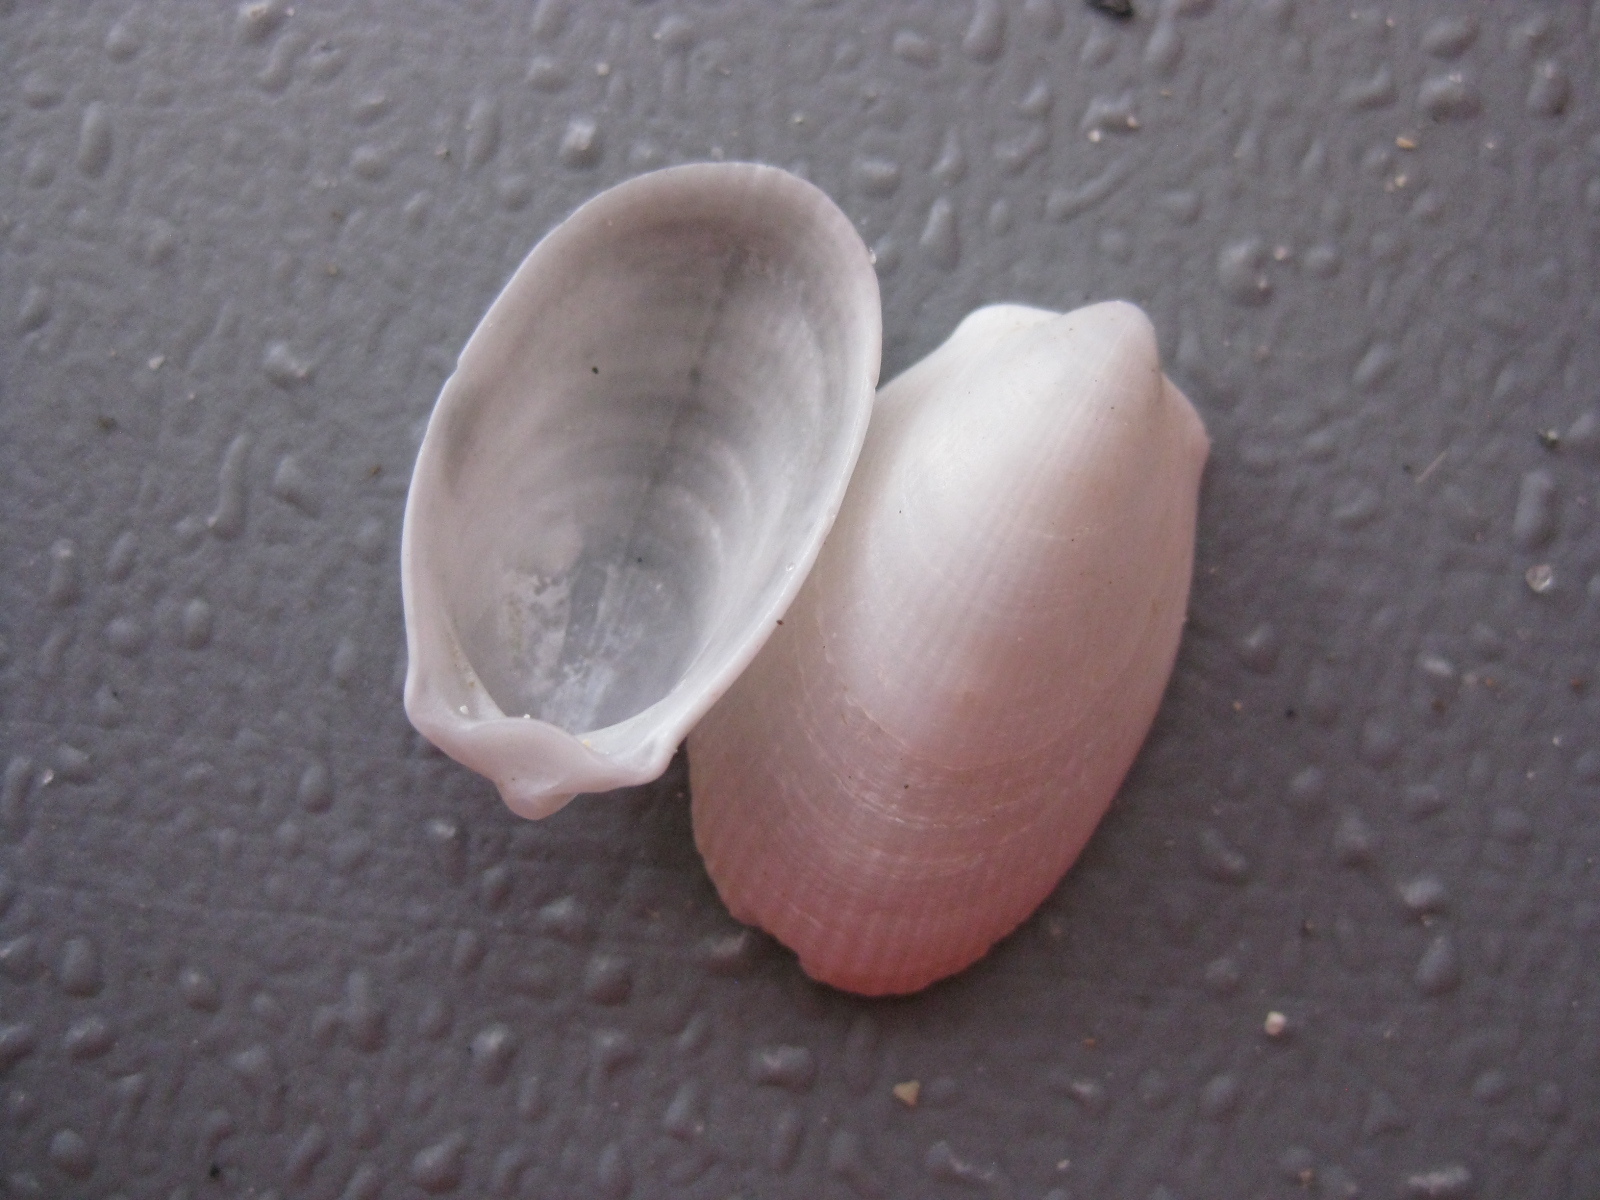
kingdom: Animalia
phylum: Mollusca
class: Bivalvia
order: Limida
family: Limidae
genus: Limatula
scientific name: Limatula maoria
